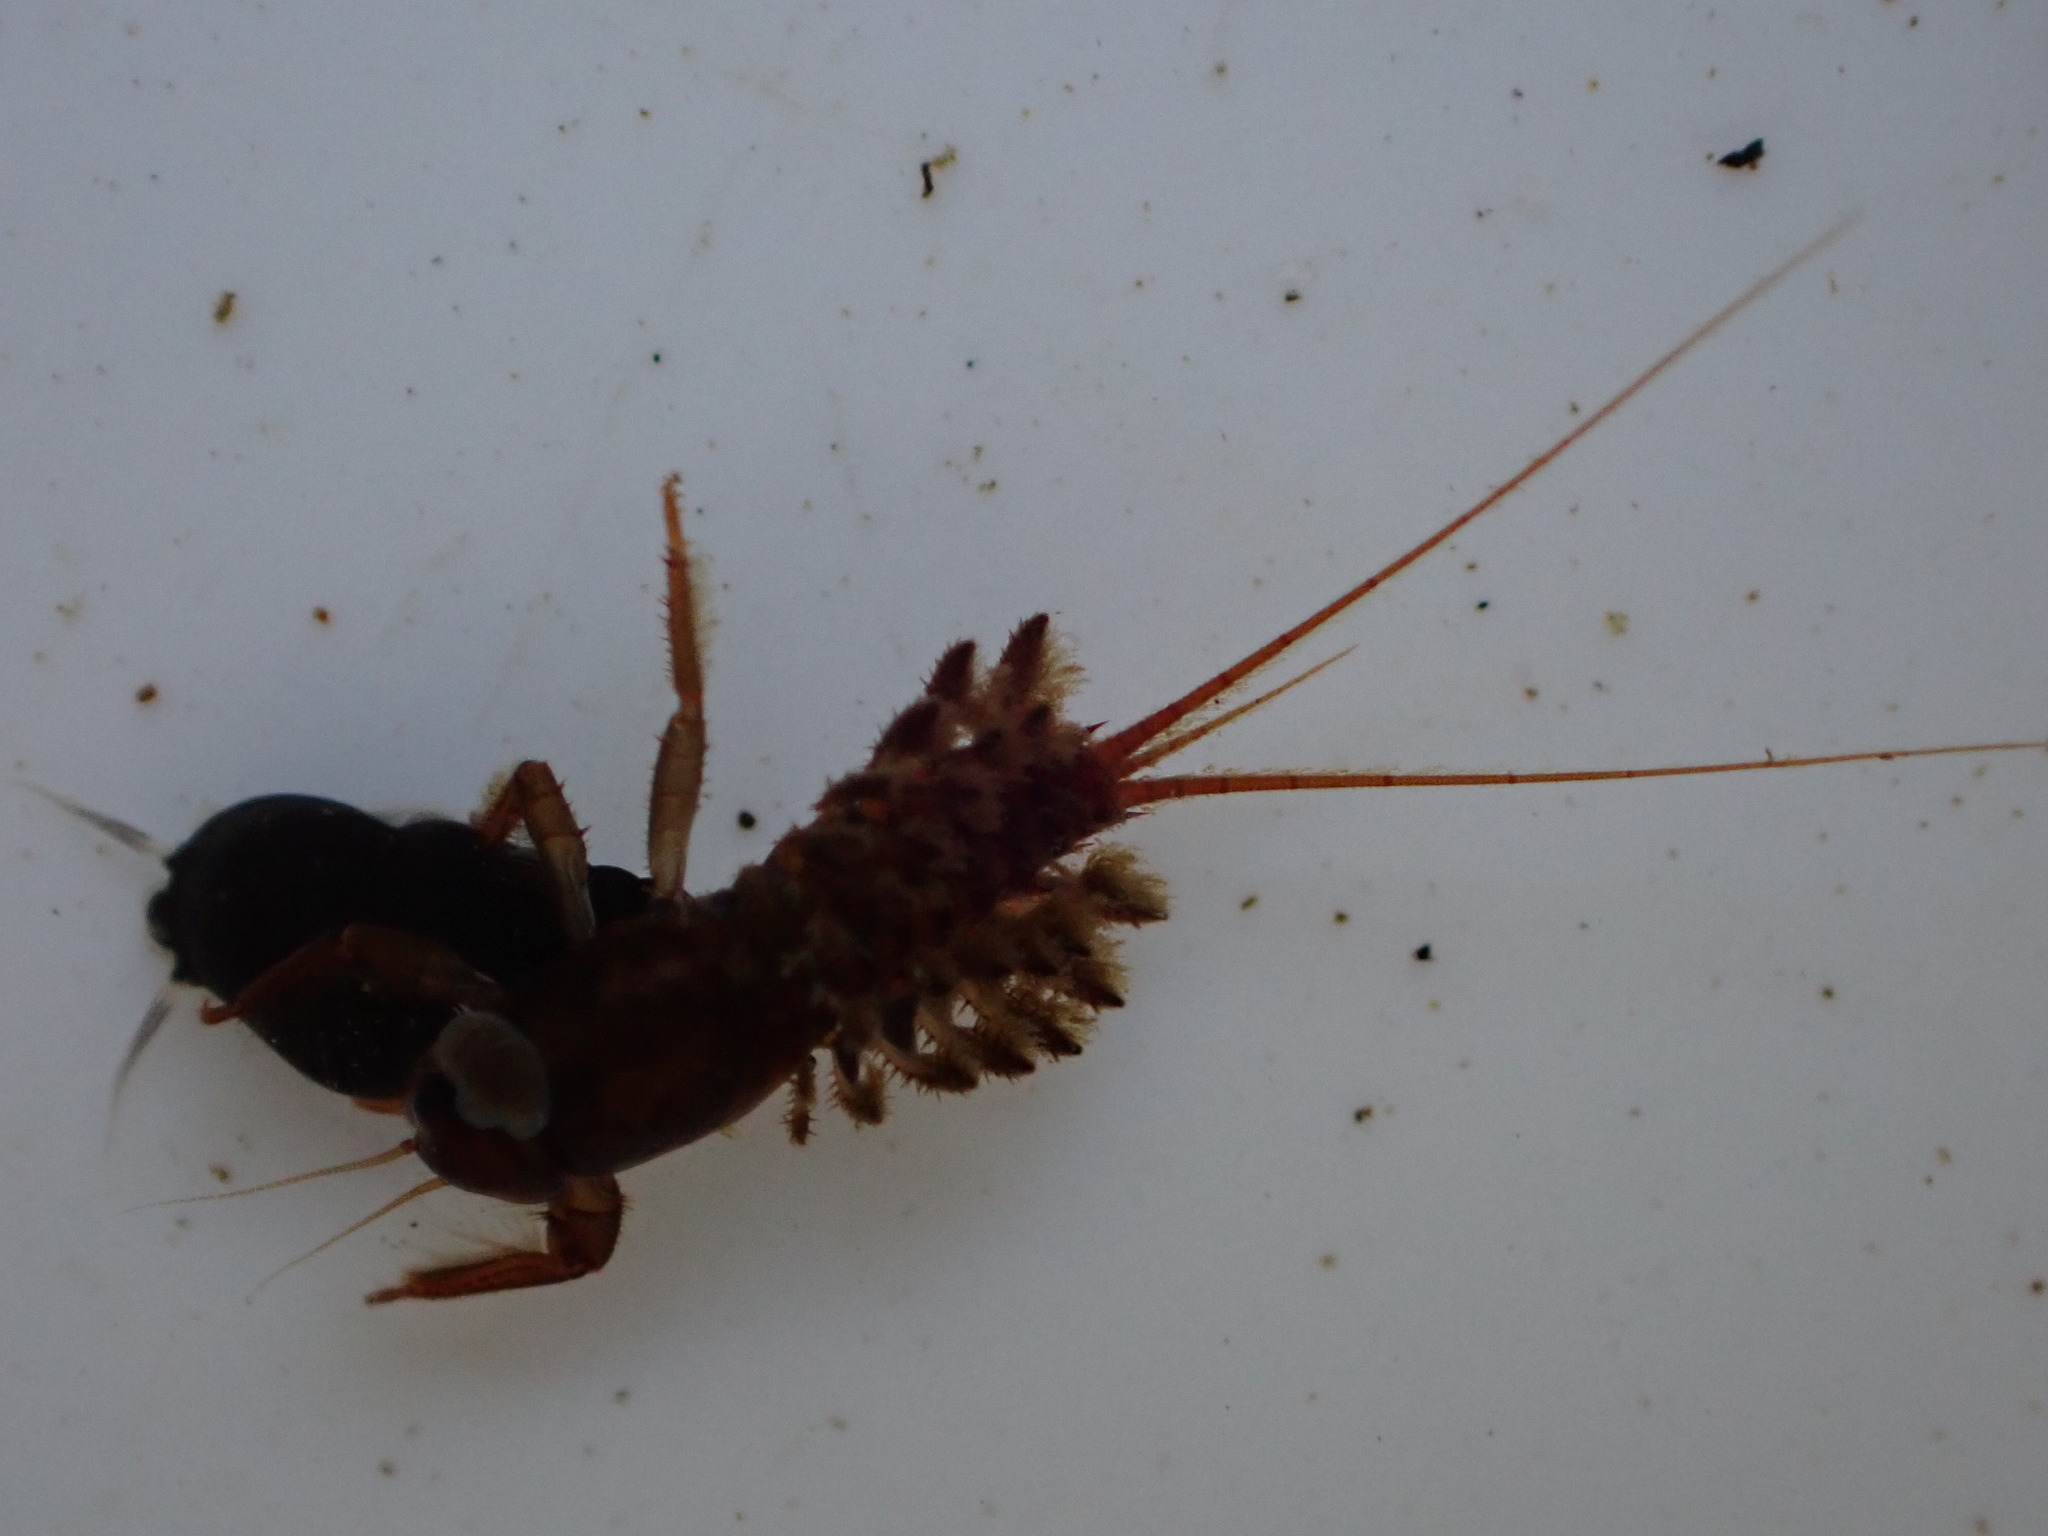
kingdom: Animalia
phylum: Arthropoda
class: Insecta
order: Ephemeroptera
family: Coloburiscidae
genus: Coloburiscus
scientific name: Coloburiscus humeralis
